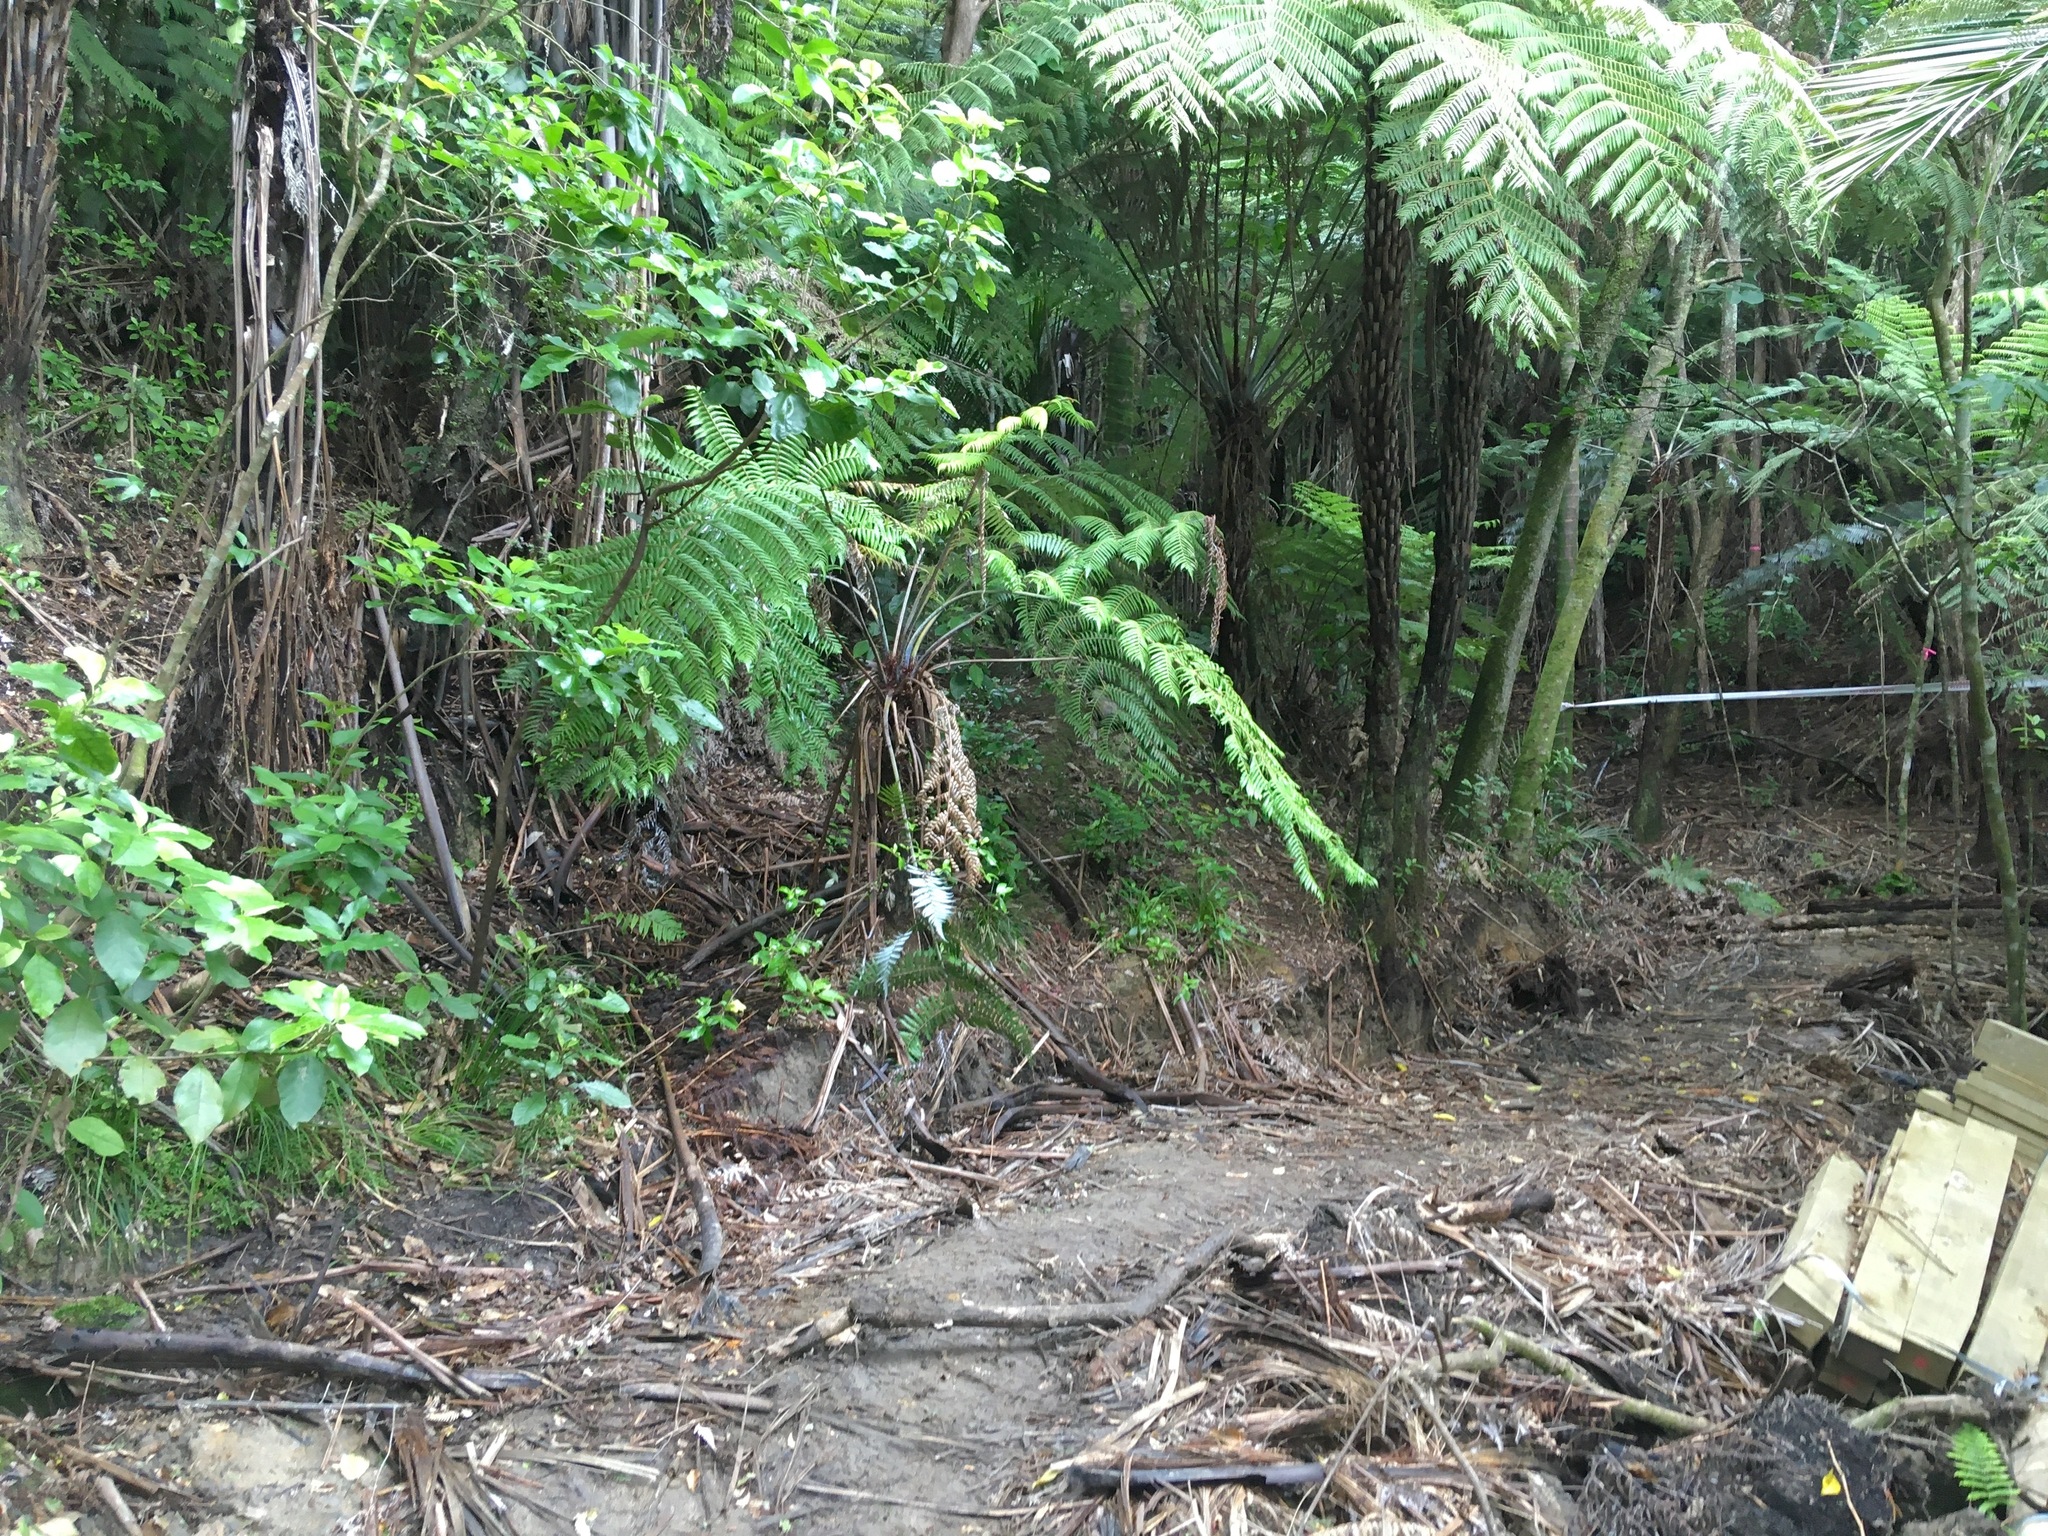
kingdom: Plantae
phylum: Tracheophyta
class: Magnoliopsida
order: Gentianales
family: Rubiaceae
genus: Coprosma
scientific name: Coprosma autumnalis
